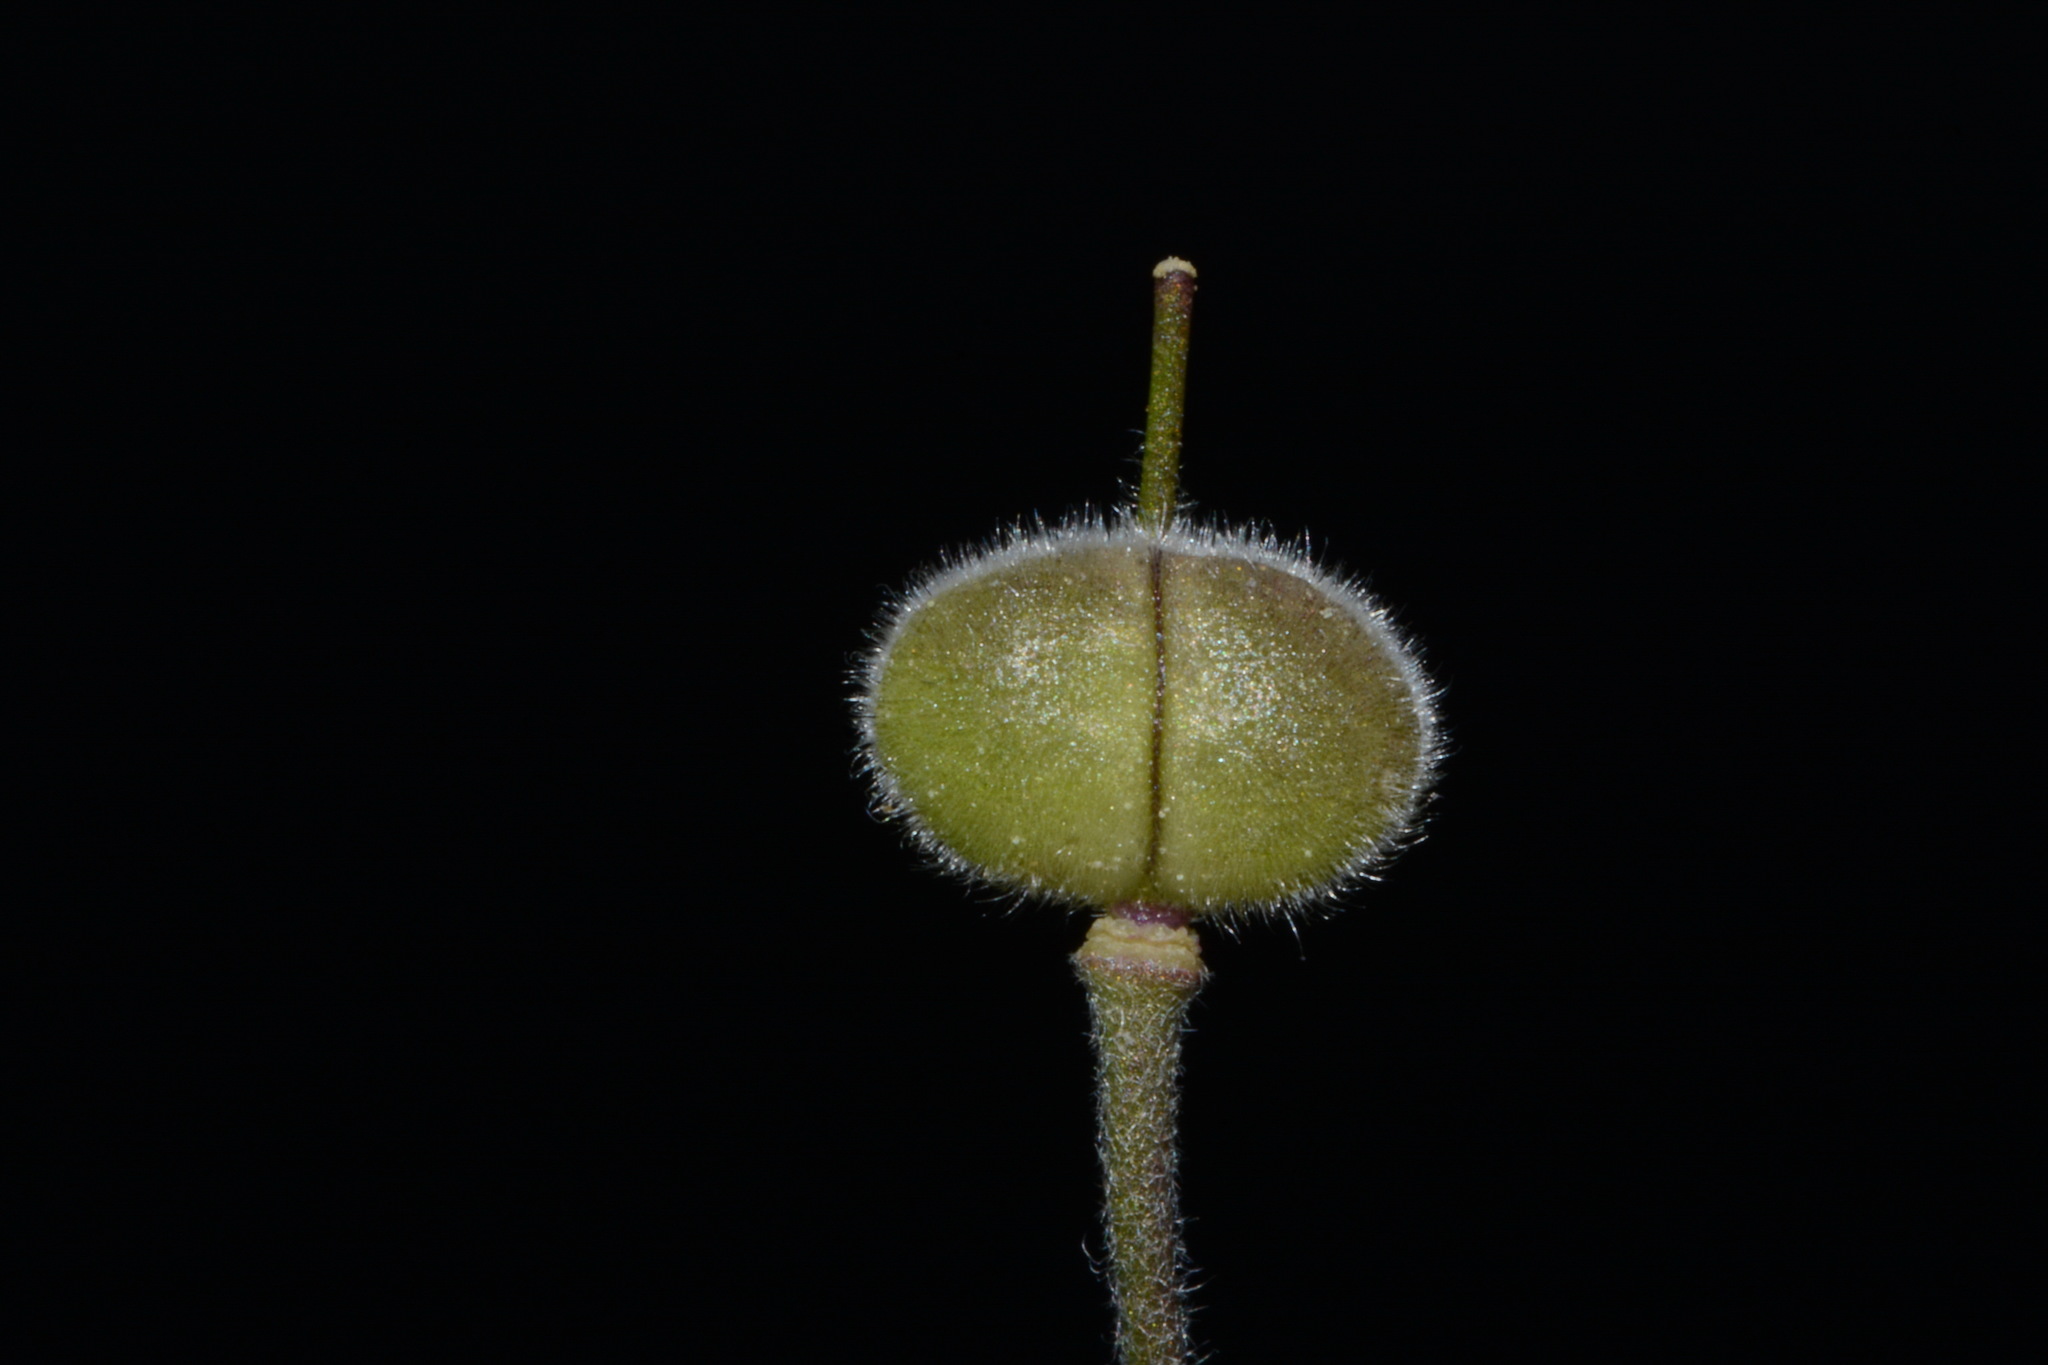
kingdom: Plantae
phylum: Tracheophyta
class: Magnoliopsida
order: Brassicales
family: Brassicaceae
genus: Paysonia
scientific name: Paysonia stonensis
